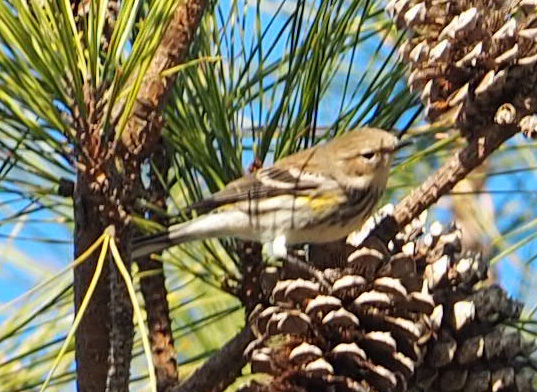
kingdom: Animalia
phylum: Chordata
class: Aves
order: Passeriformes
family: Parulidae
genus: Setophaga
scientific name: Setophaga coronata
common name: Myrtle warbler
